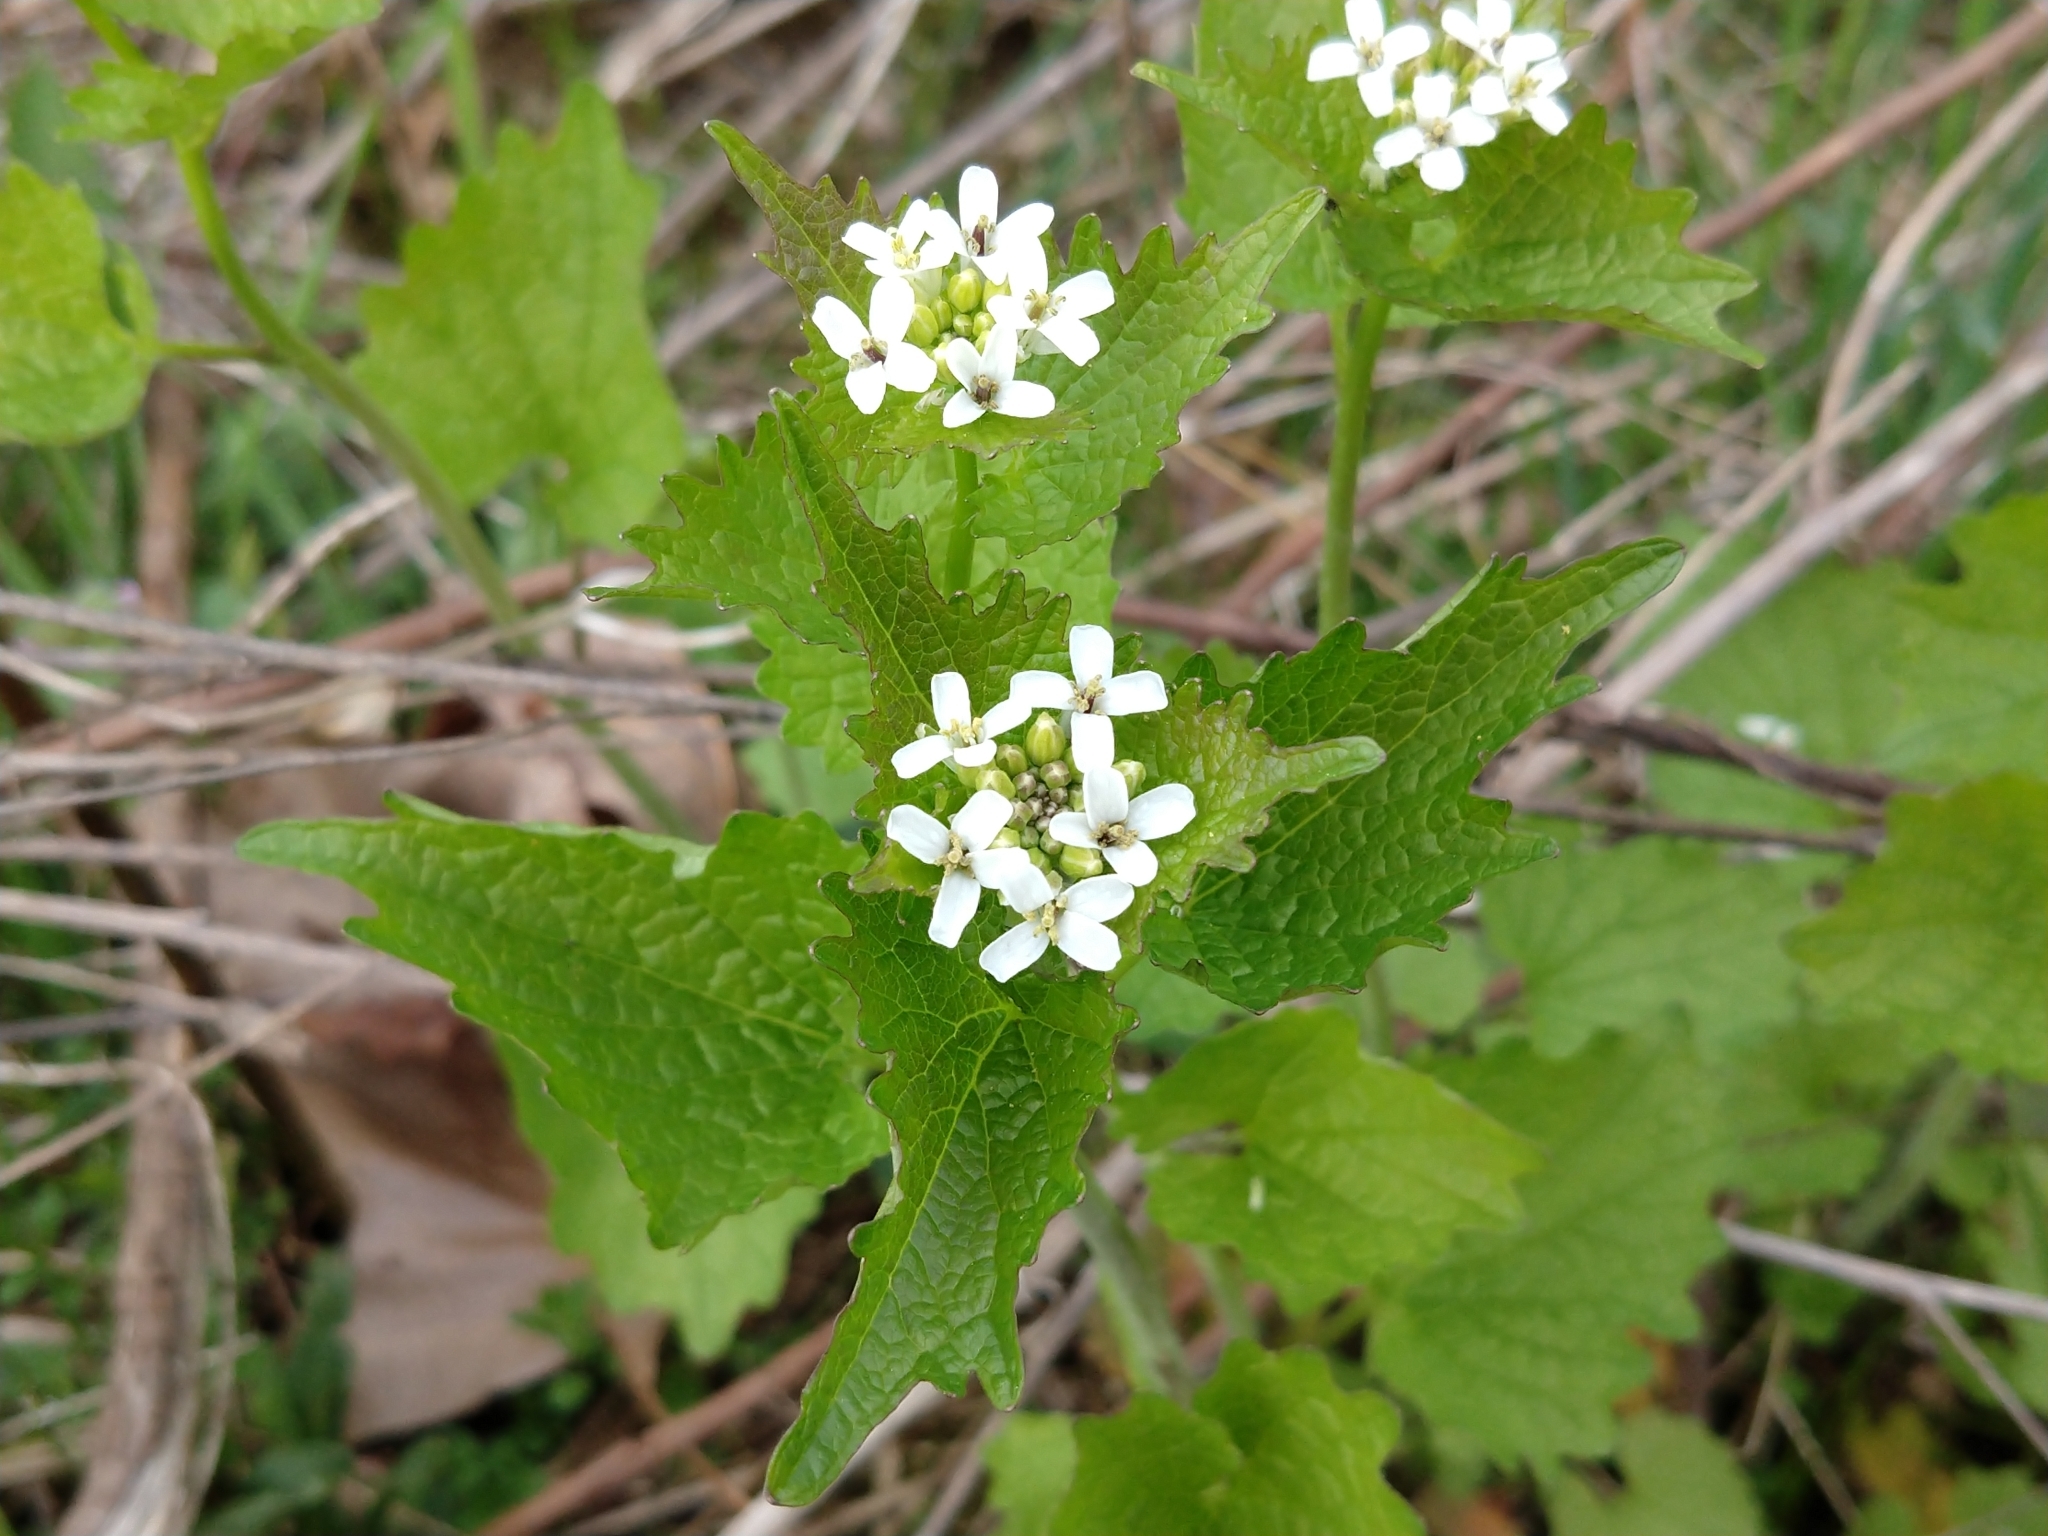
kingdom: Plantae
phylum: Tracheophyta
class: Magnoliopsida
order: Brassicales
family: Brassicaceae
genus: Alliaria
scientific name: Alliaria petiolata
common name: Garlic mustard
